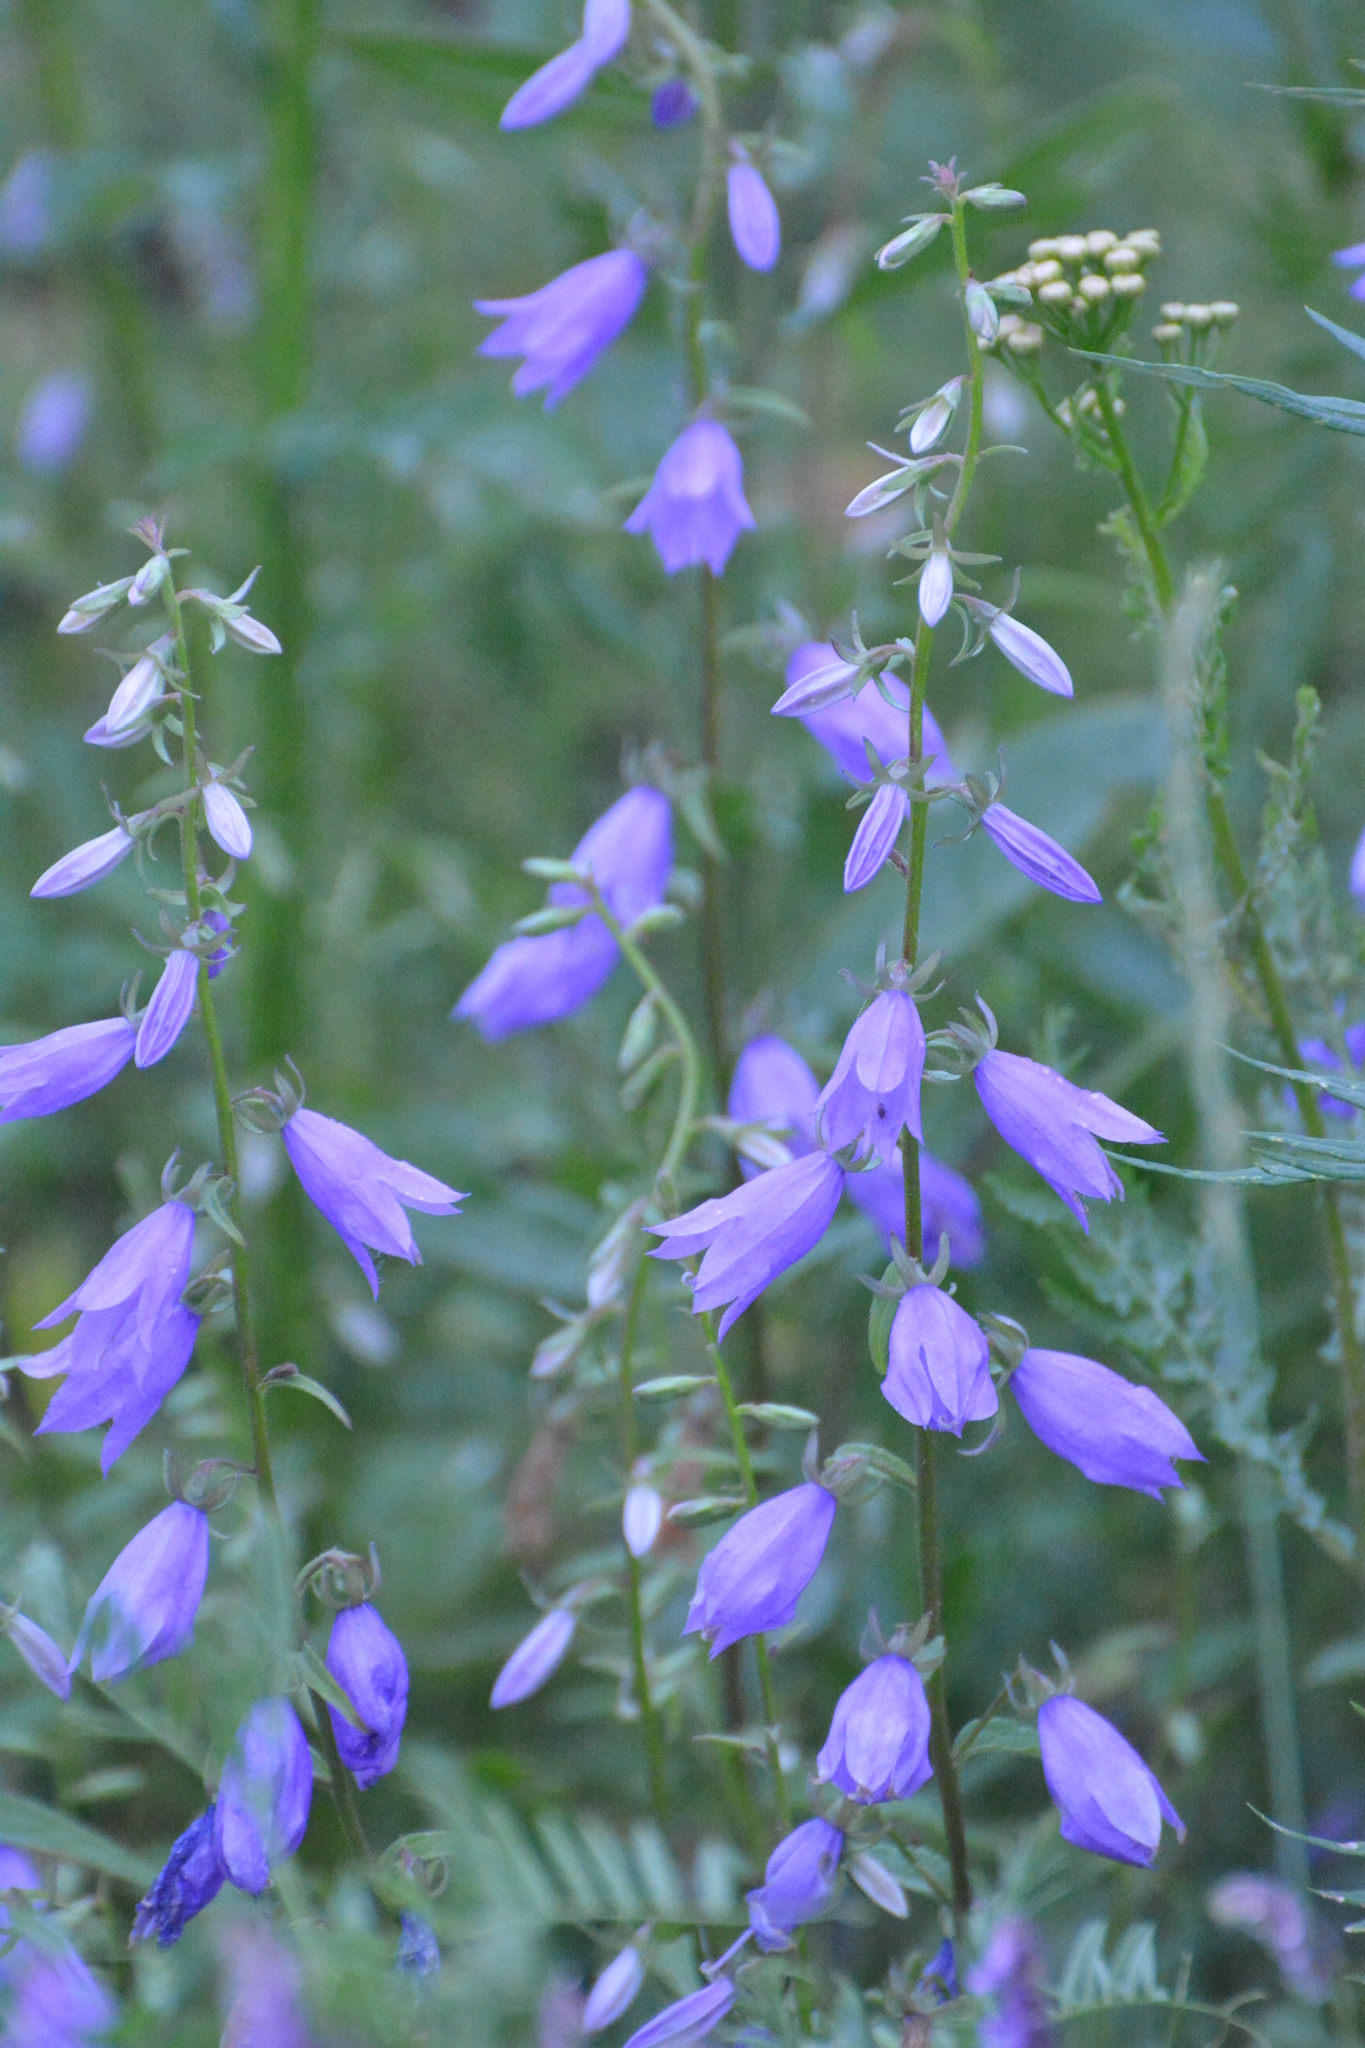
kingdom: Plantae
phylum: Tracheophyta
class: Magnoliopsida
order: Asterales
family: Campanulaceae
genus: Campanula
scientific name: Campanula rapunculoides
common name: Creeping bellflower
